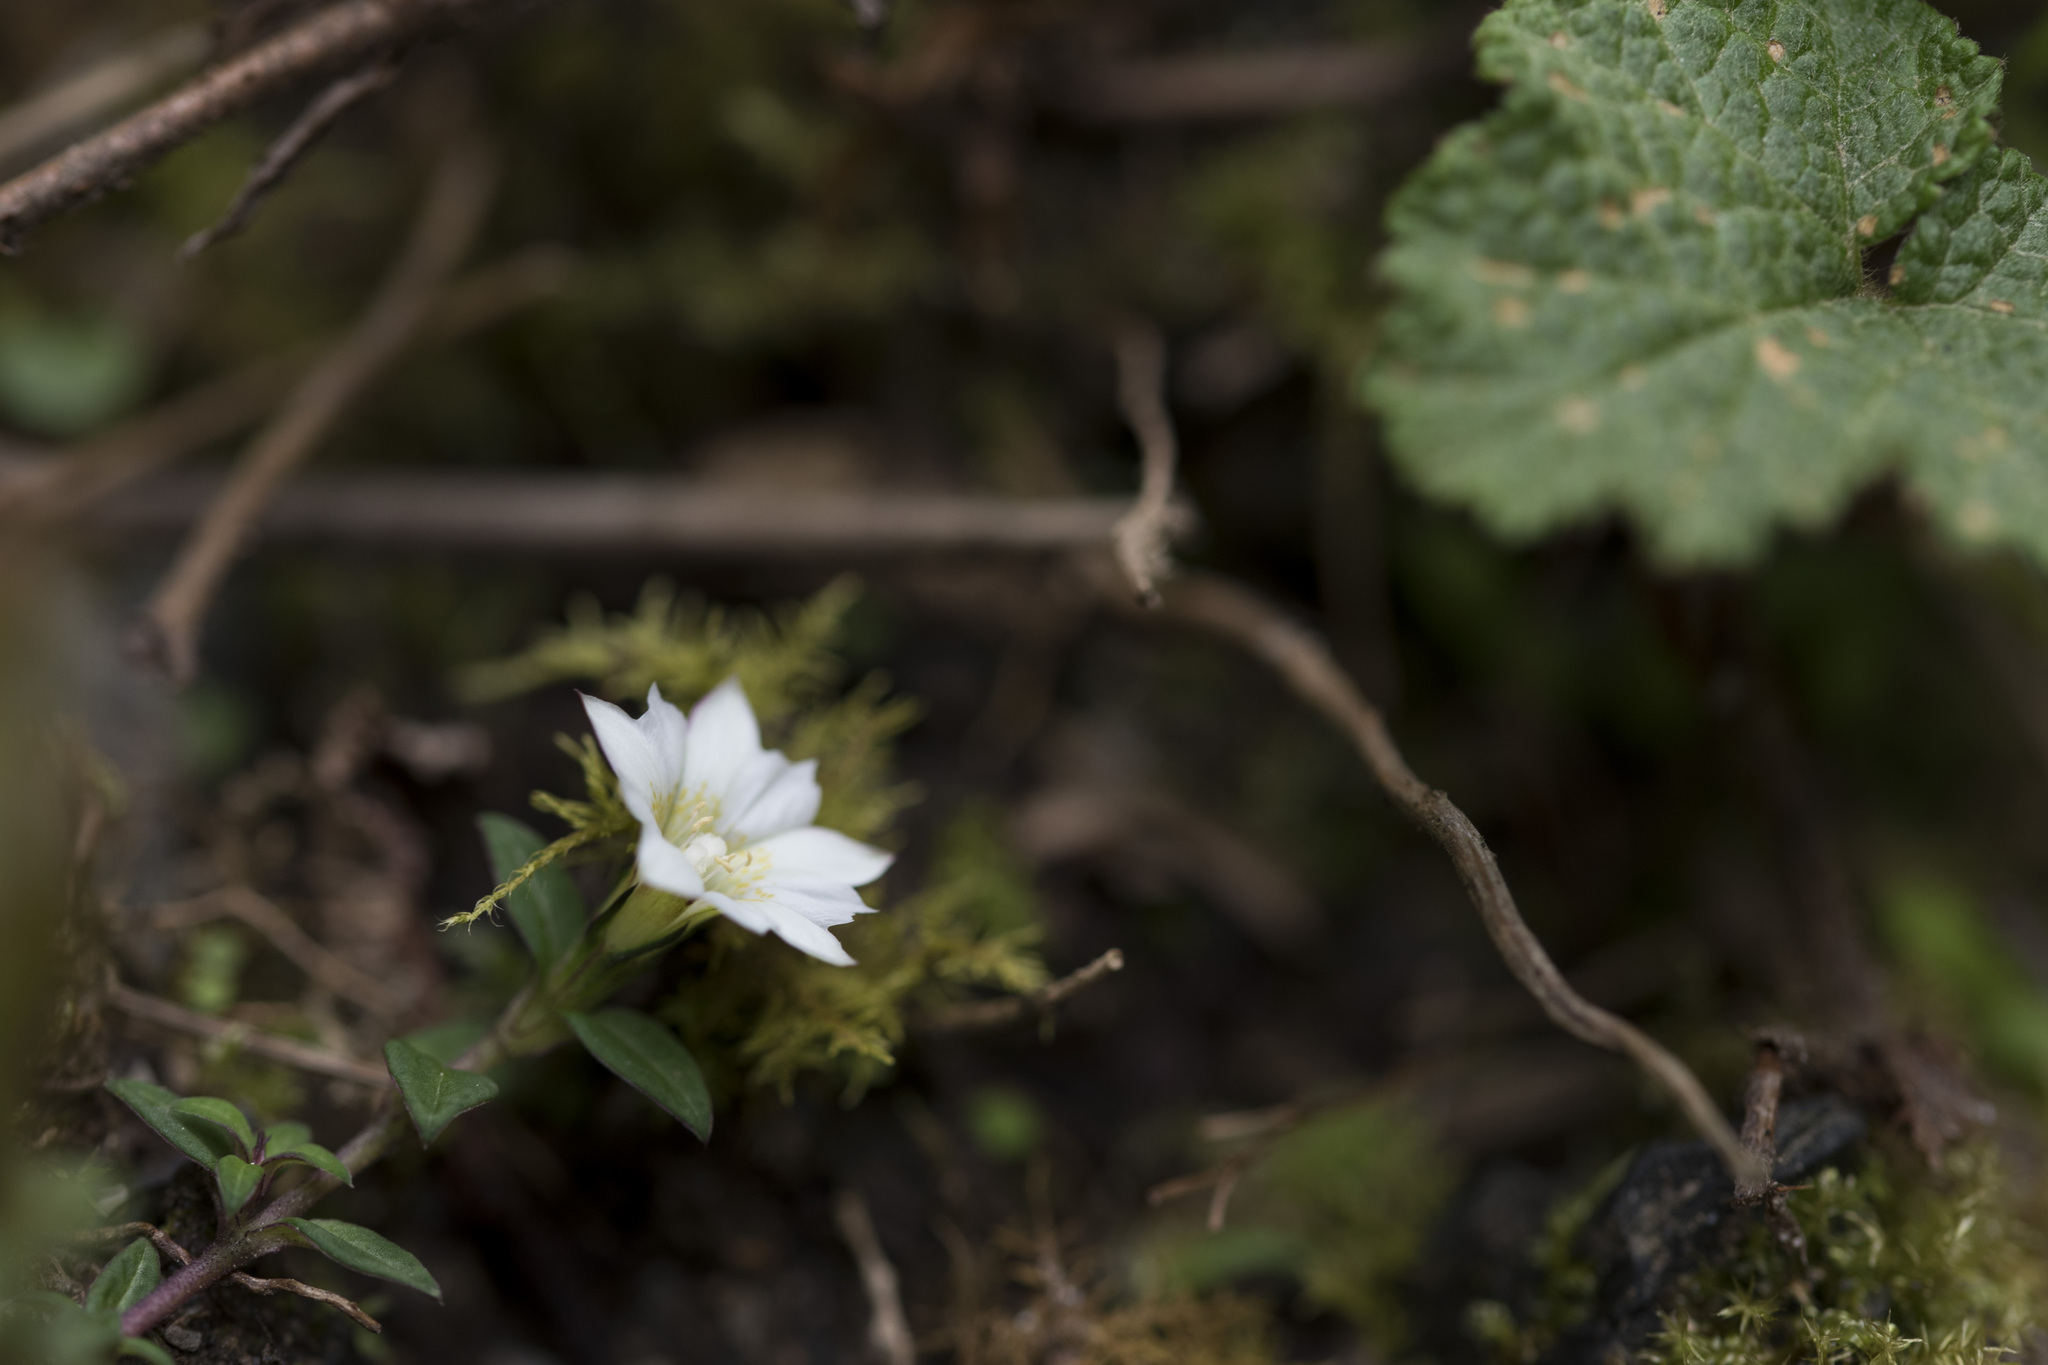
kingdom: Plantae
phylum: Tracheophyta
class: Magnoliopsida
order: Gentianales
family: Gentianaceae
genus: Gentiana
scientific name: Gentiana flavomaculata
